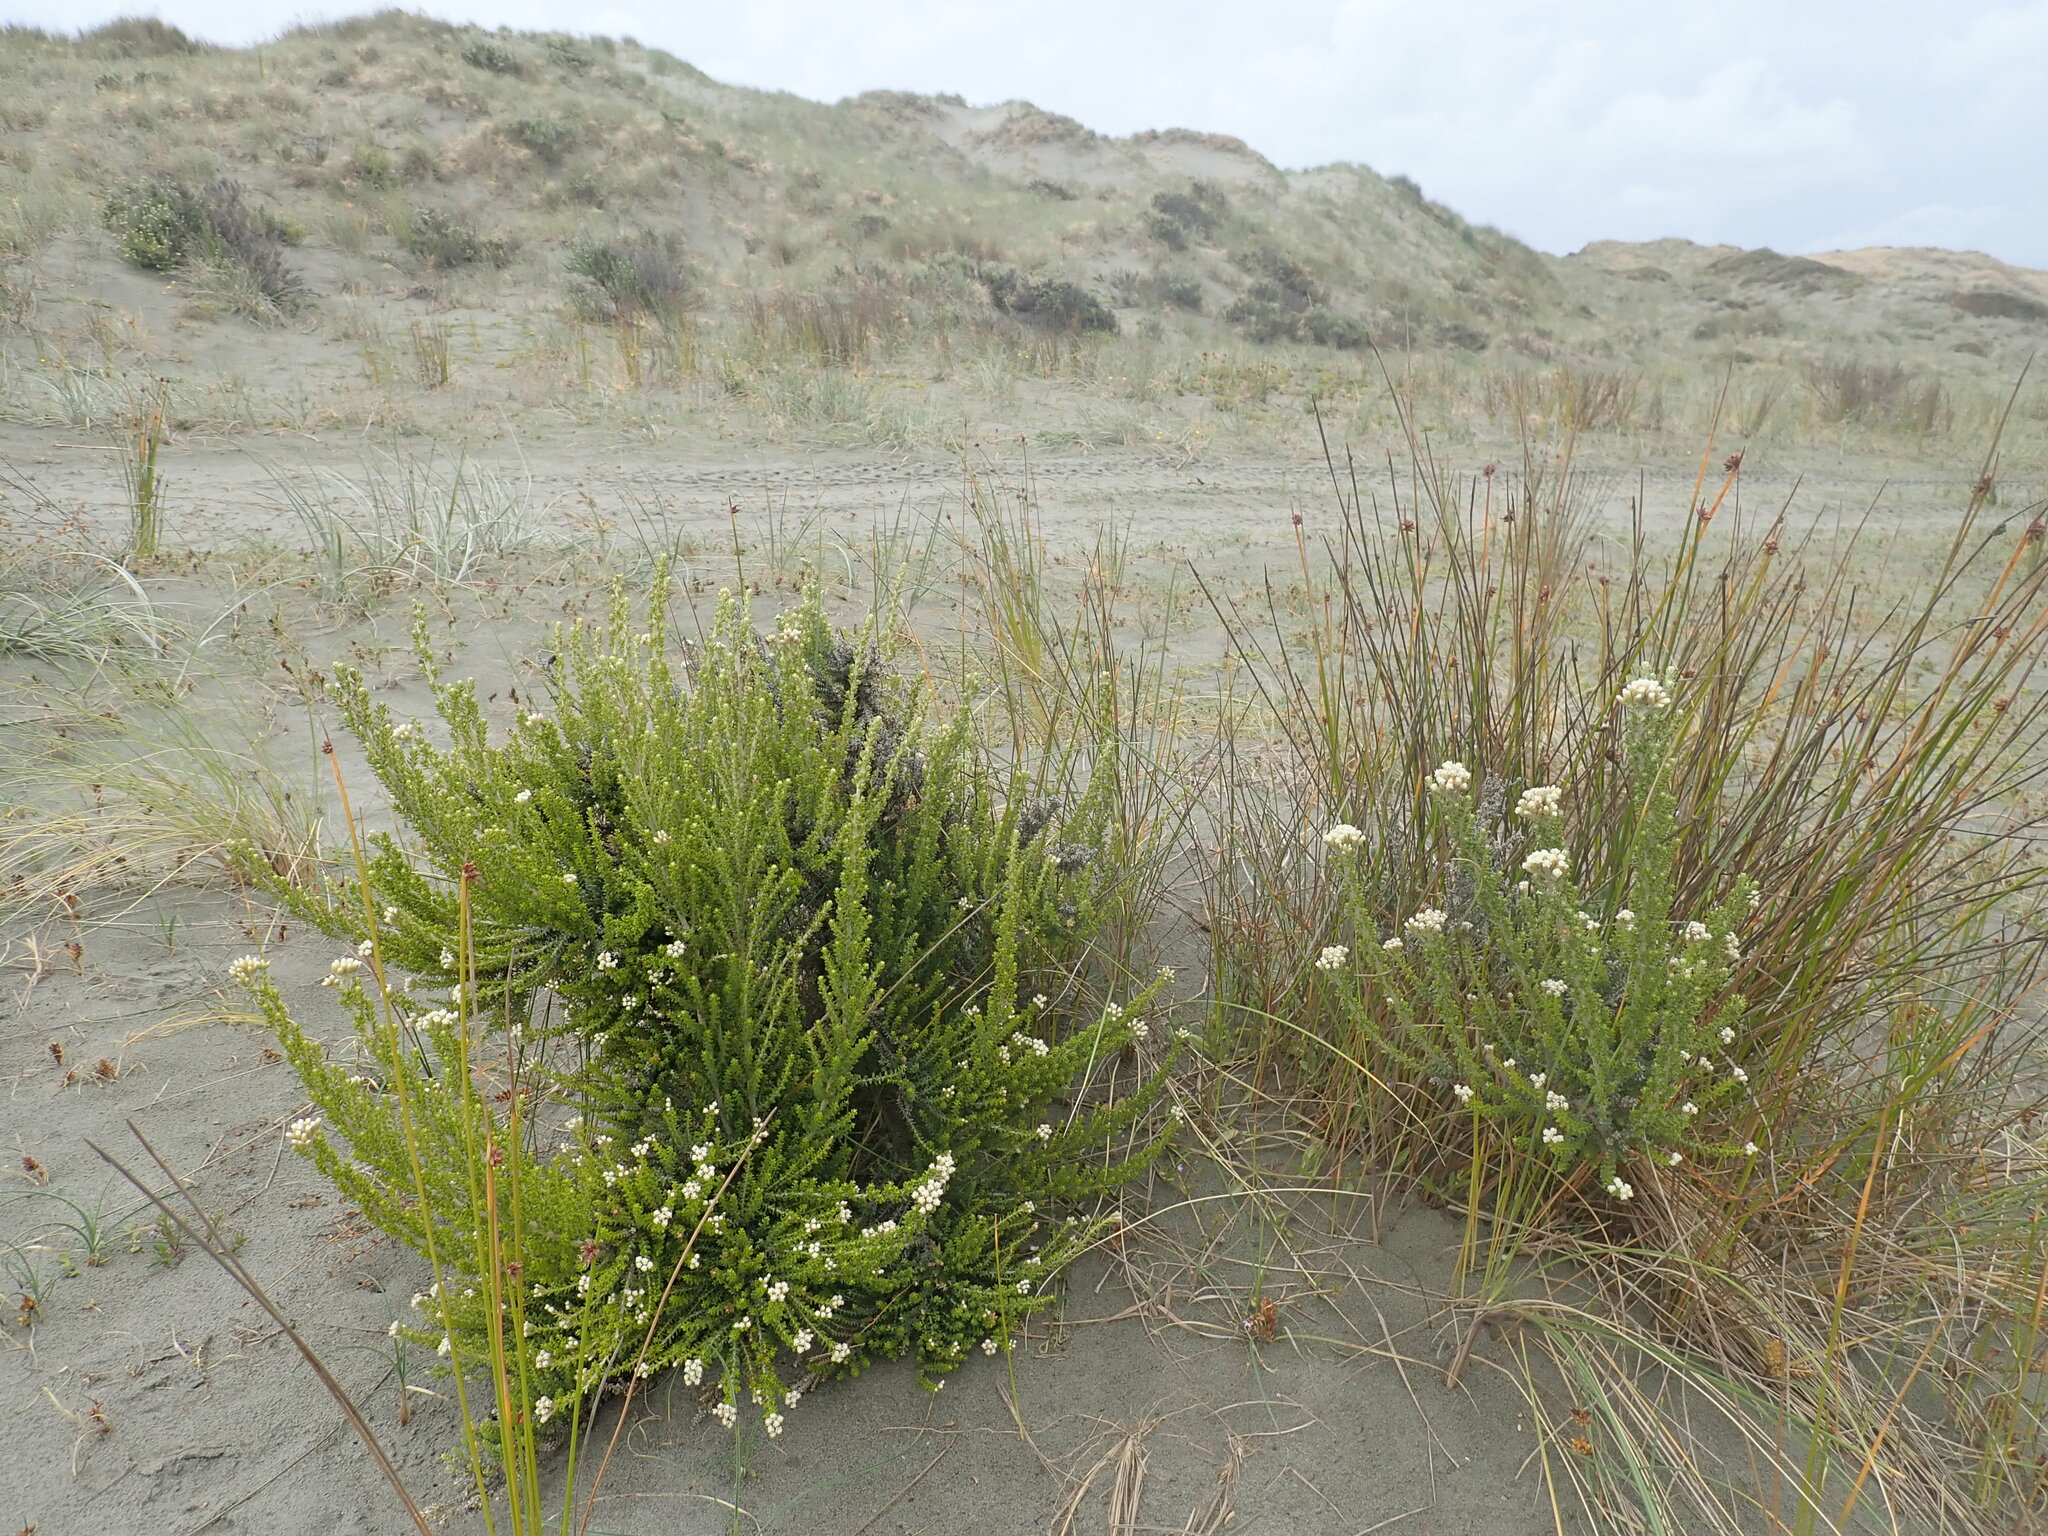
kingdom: Plantae
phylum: Tracheophyta
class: Magnoliopsida
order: Asterales
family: Asteraceae
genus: Ozothamnus
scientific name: Ozothamnus leptophyllus
